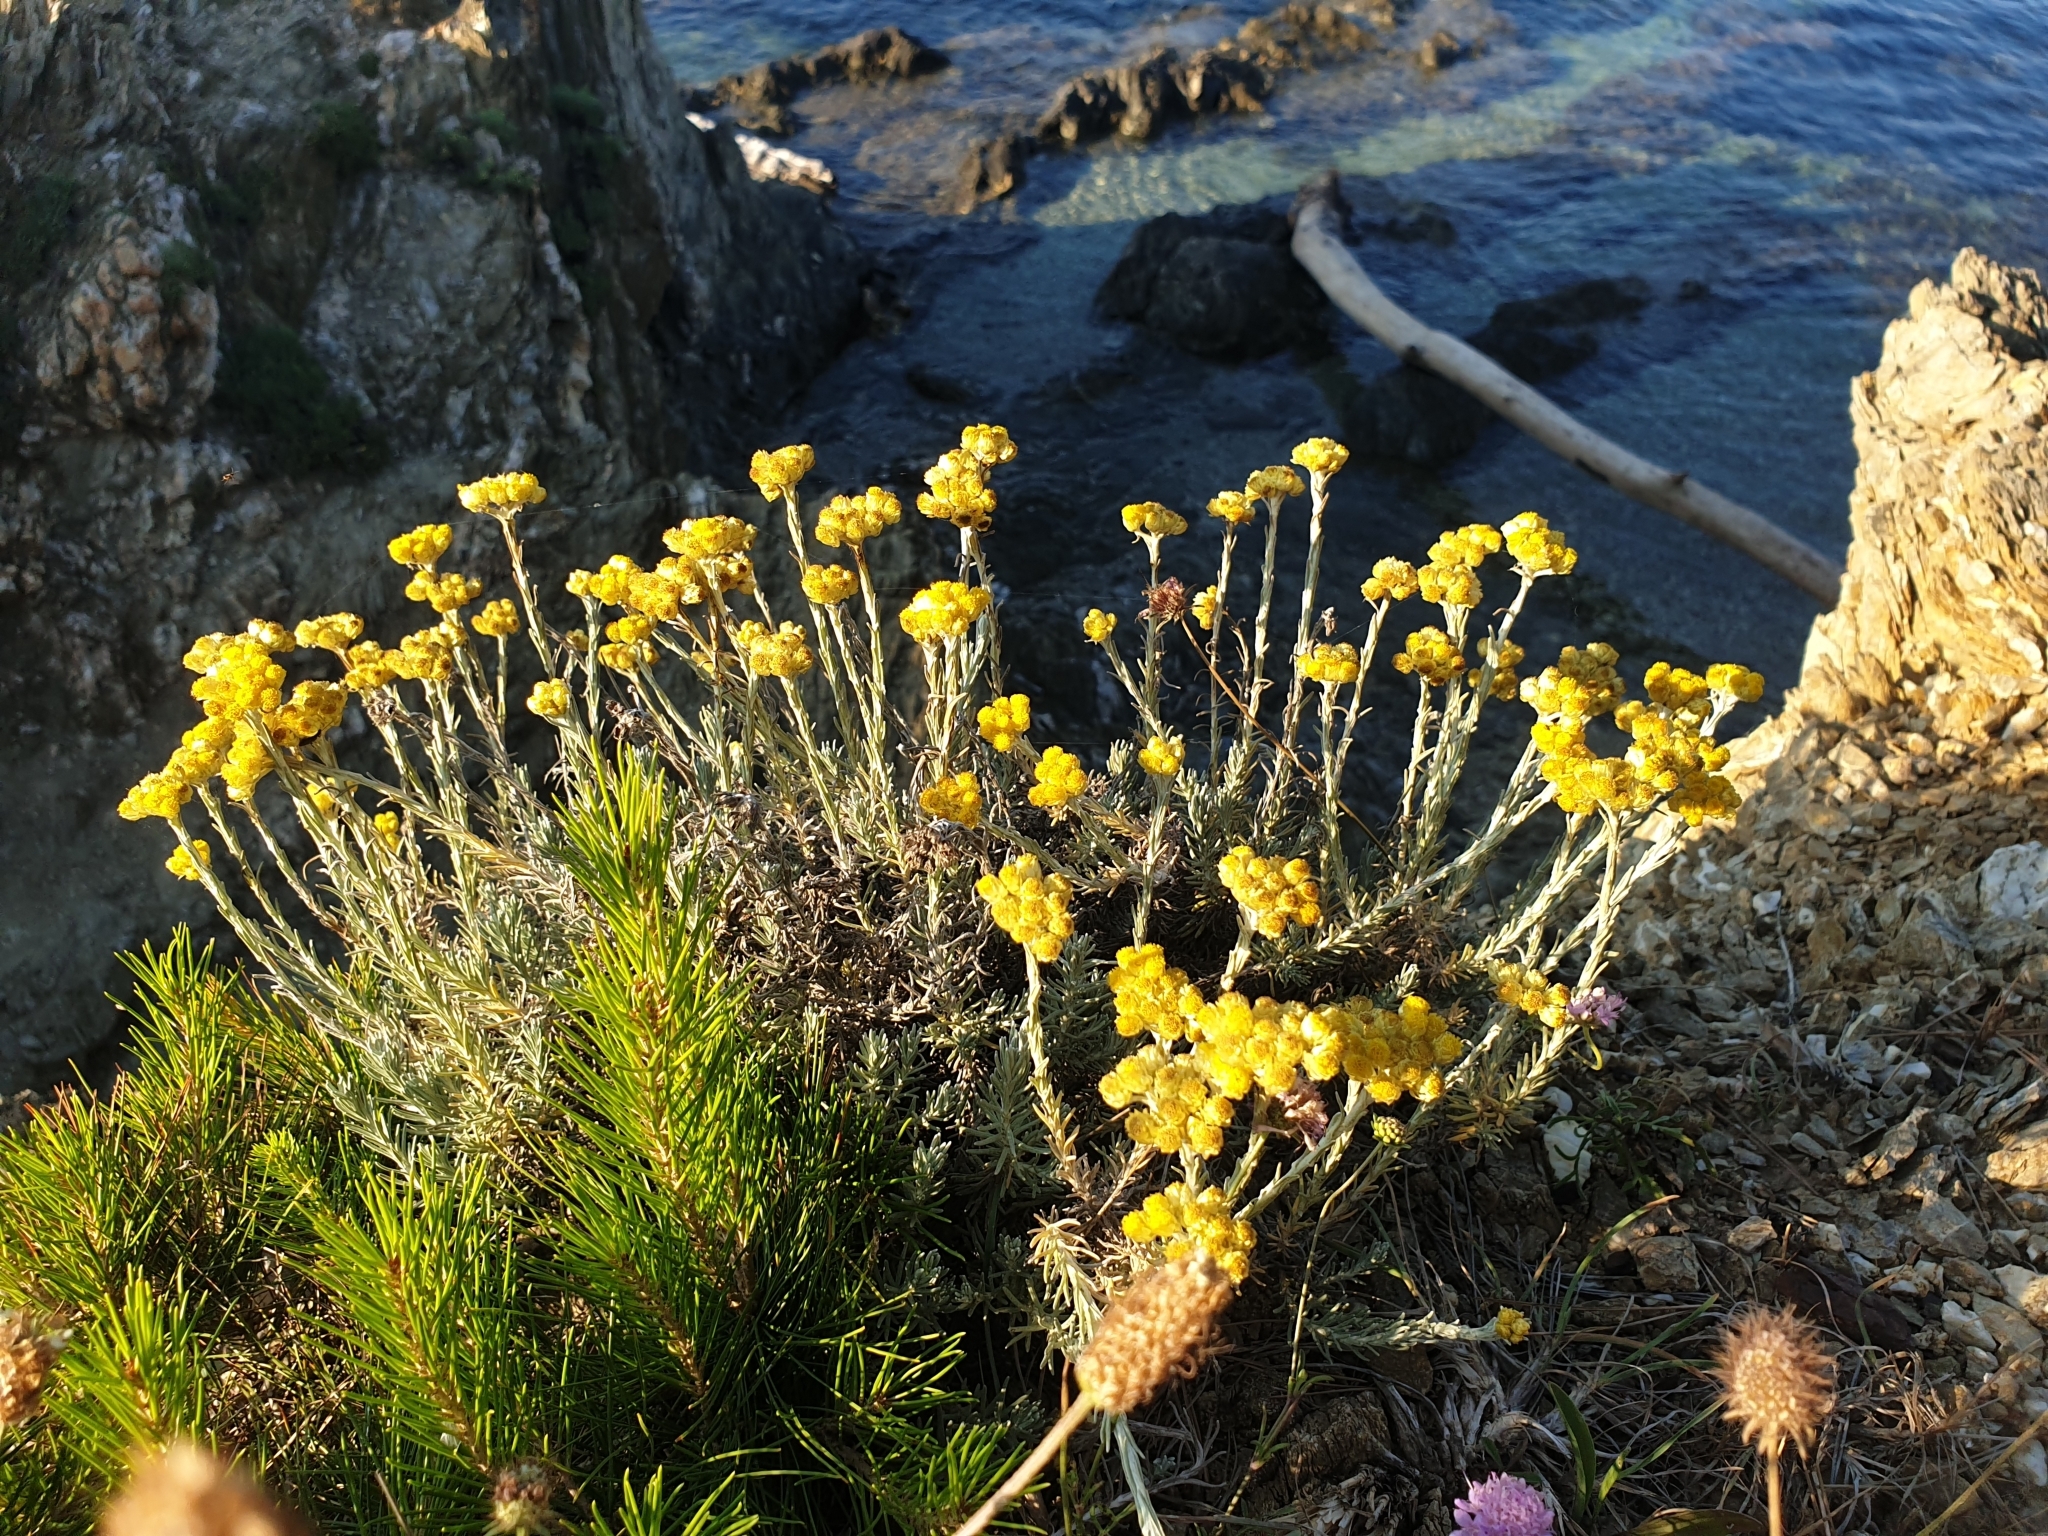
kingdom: Plantae
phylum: Tracheophyta
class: Magnoliopsida
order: Asterales
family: Asteraceae
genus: Helichrysum
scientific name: Helichrysum stoechas
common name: Goldilocks
